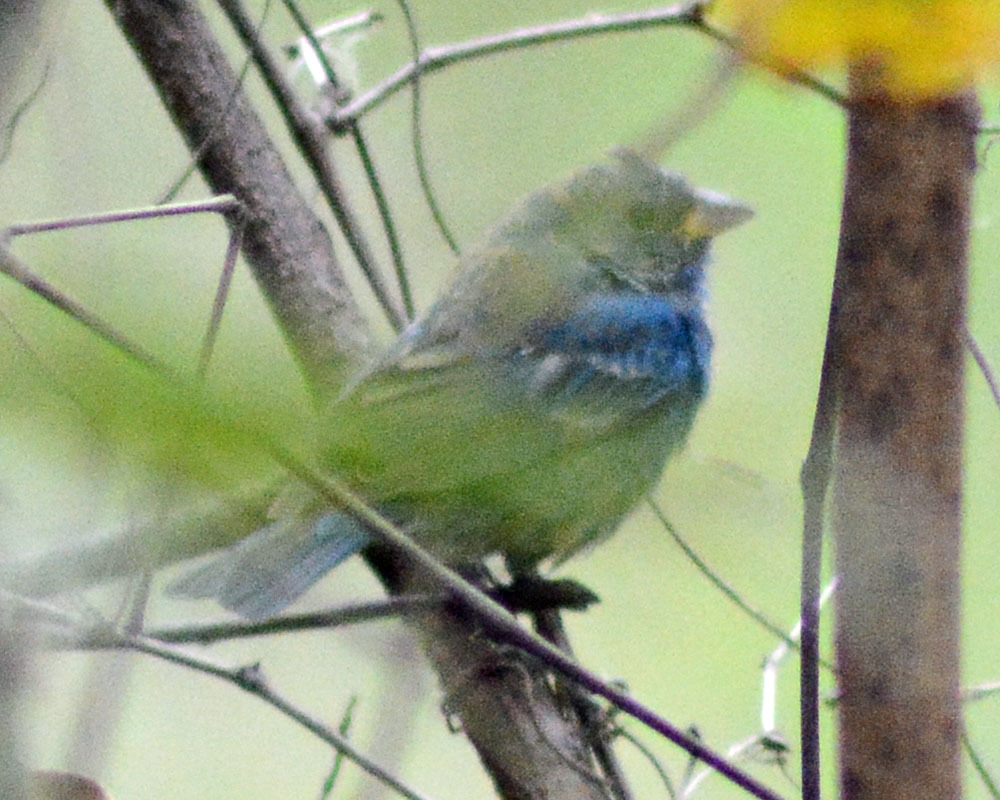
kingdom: Animalia
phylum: Chordata
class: Aves
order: Passeriformes
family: Cardinalidae
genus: Passerina
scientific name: Passerina cyanea
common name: Indigo bunting
